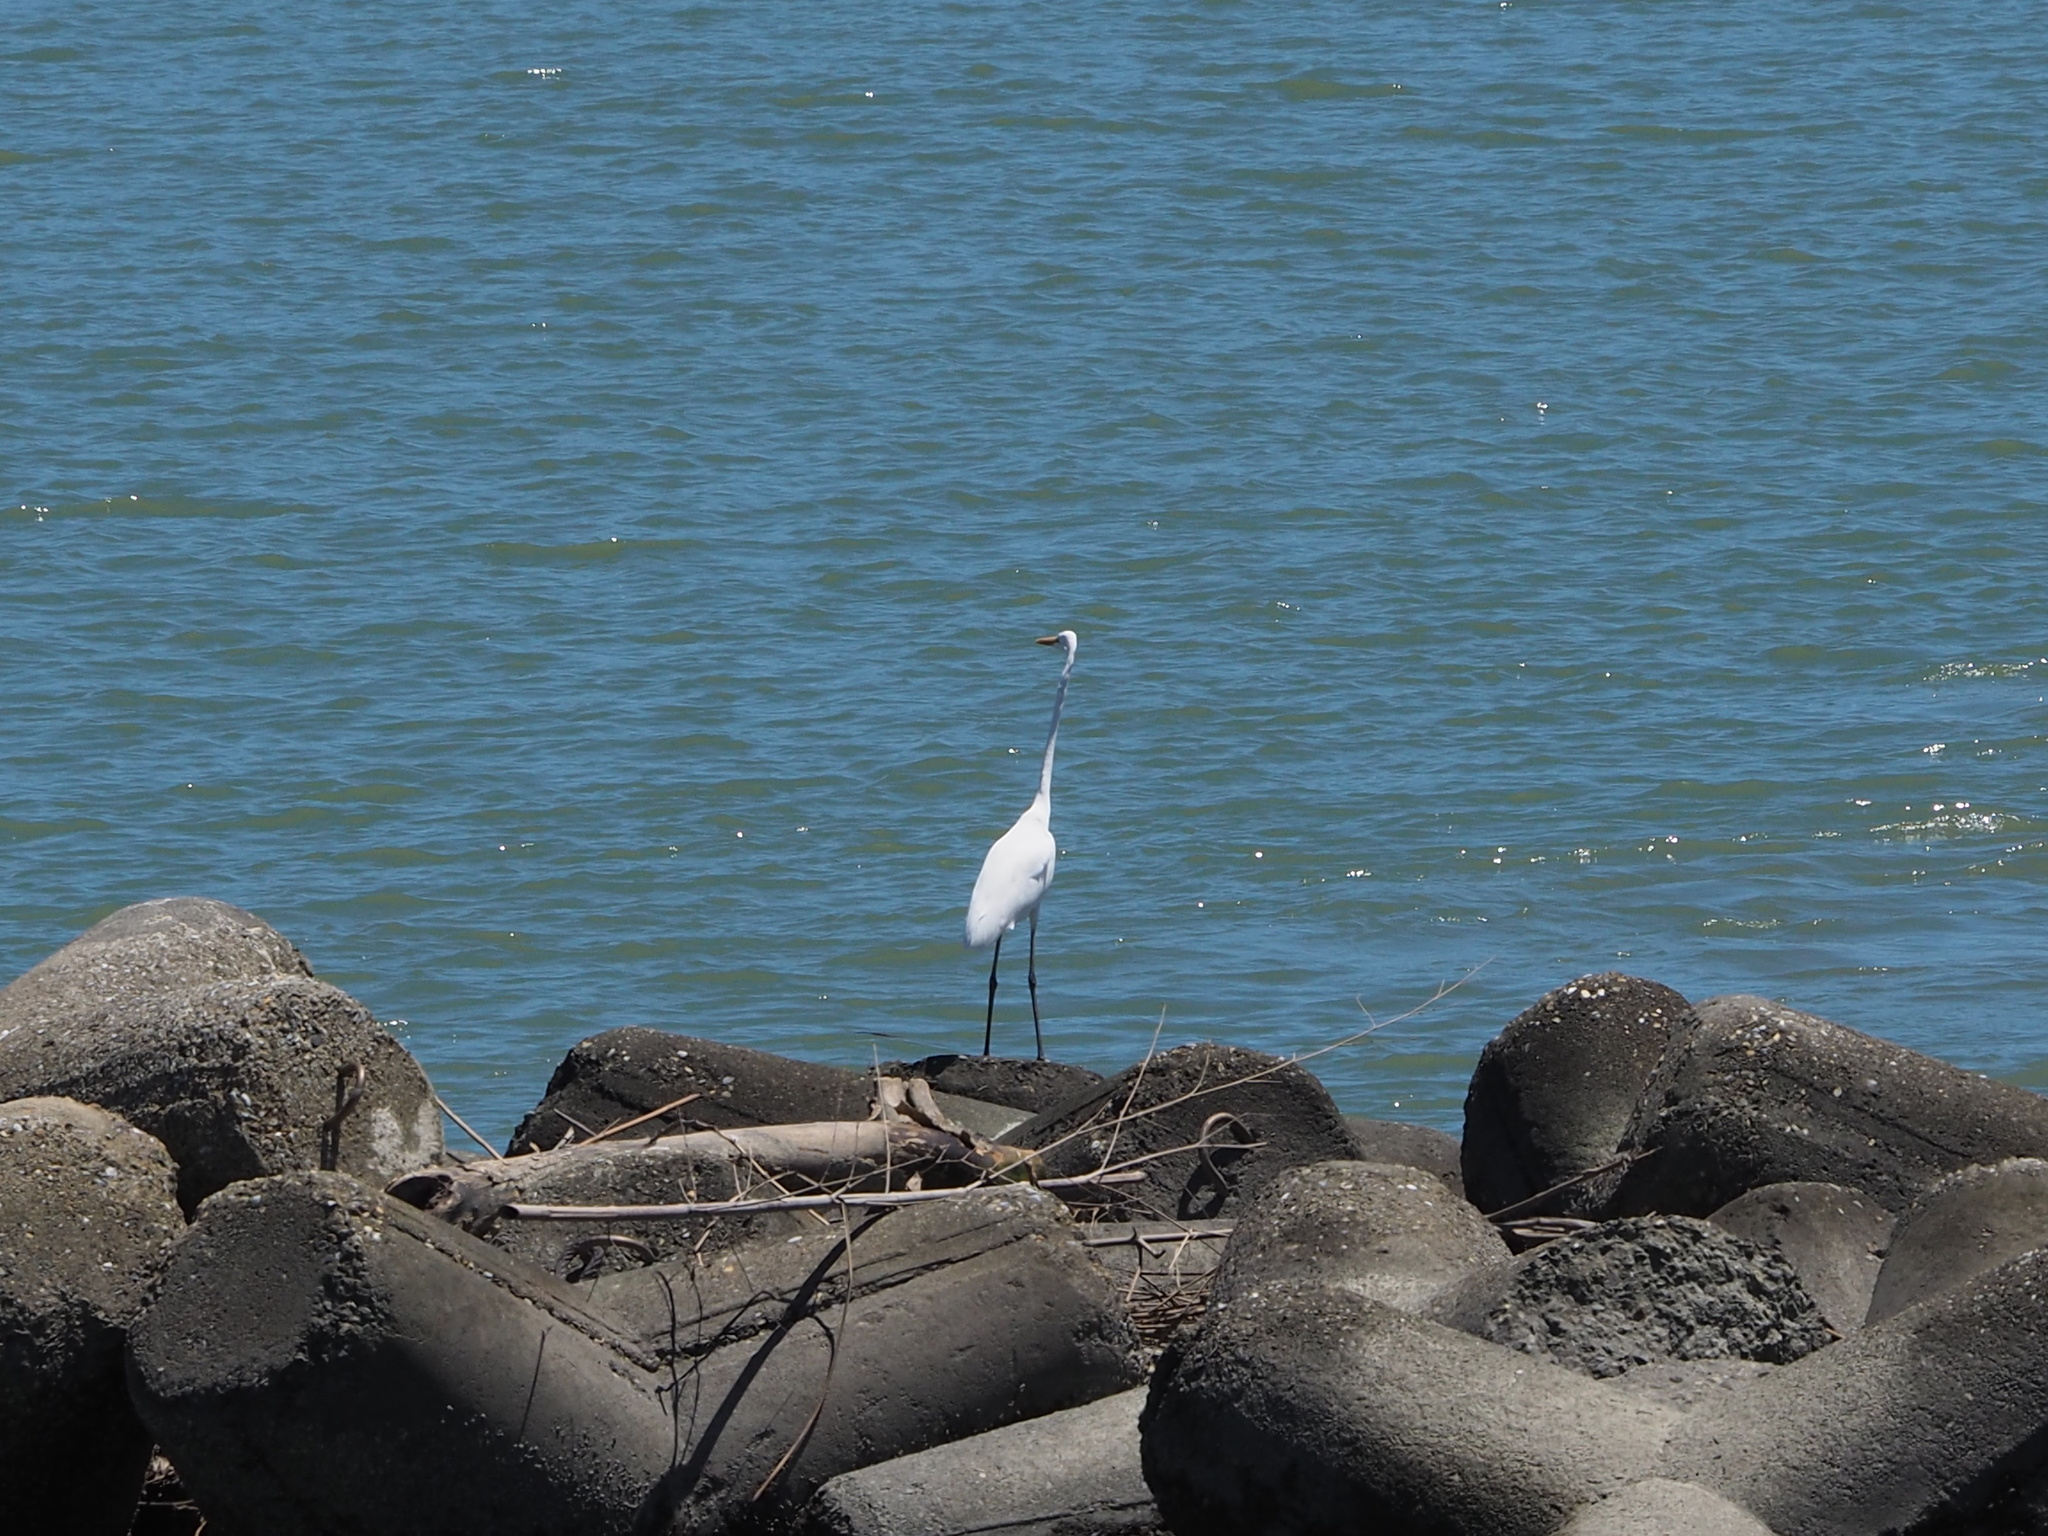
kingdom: Animalia
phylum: Chordata
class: Aves
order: Pelecaniformes
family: Ardeidae
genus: Ardea
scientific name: Ardea alba
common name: Great egret
